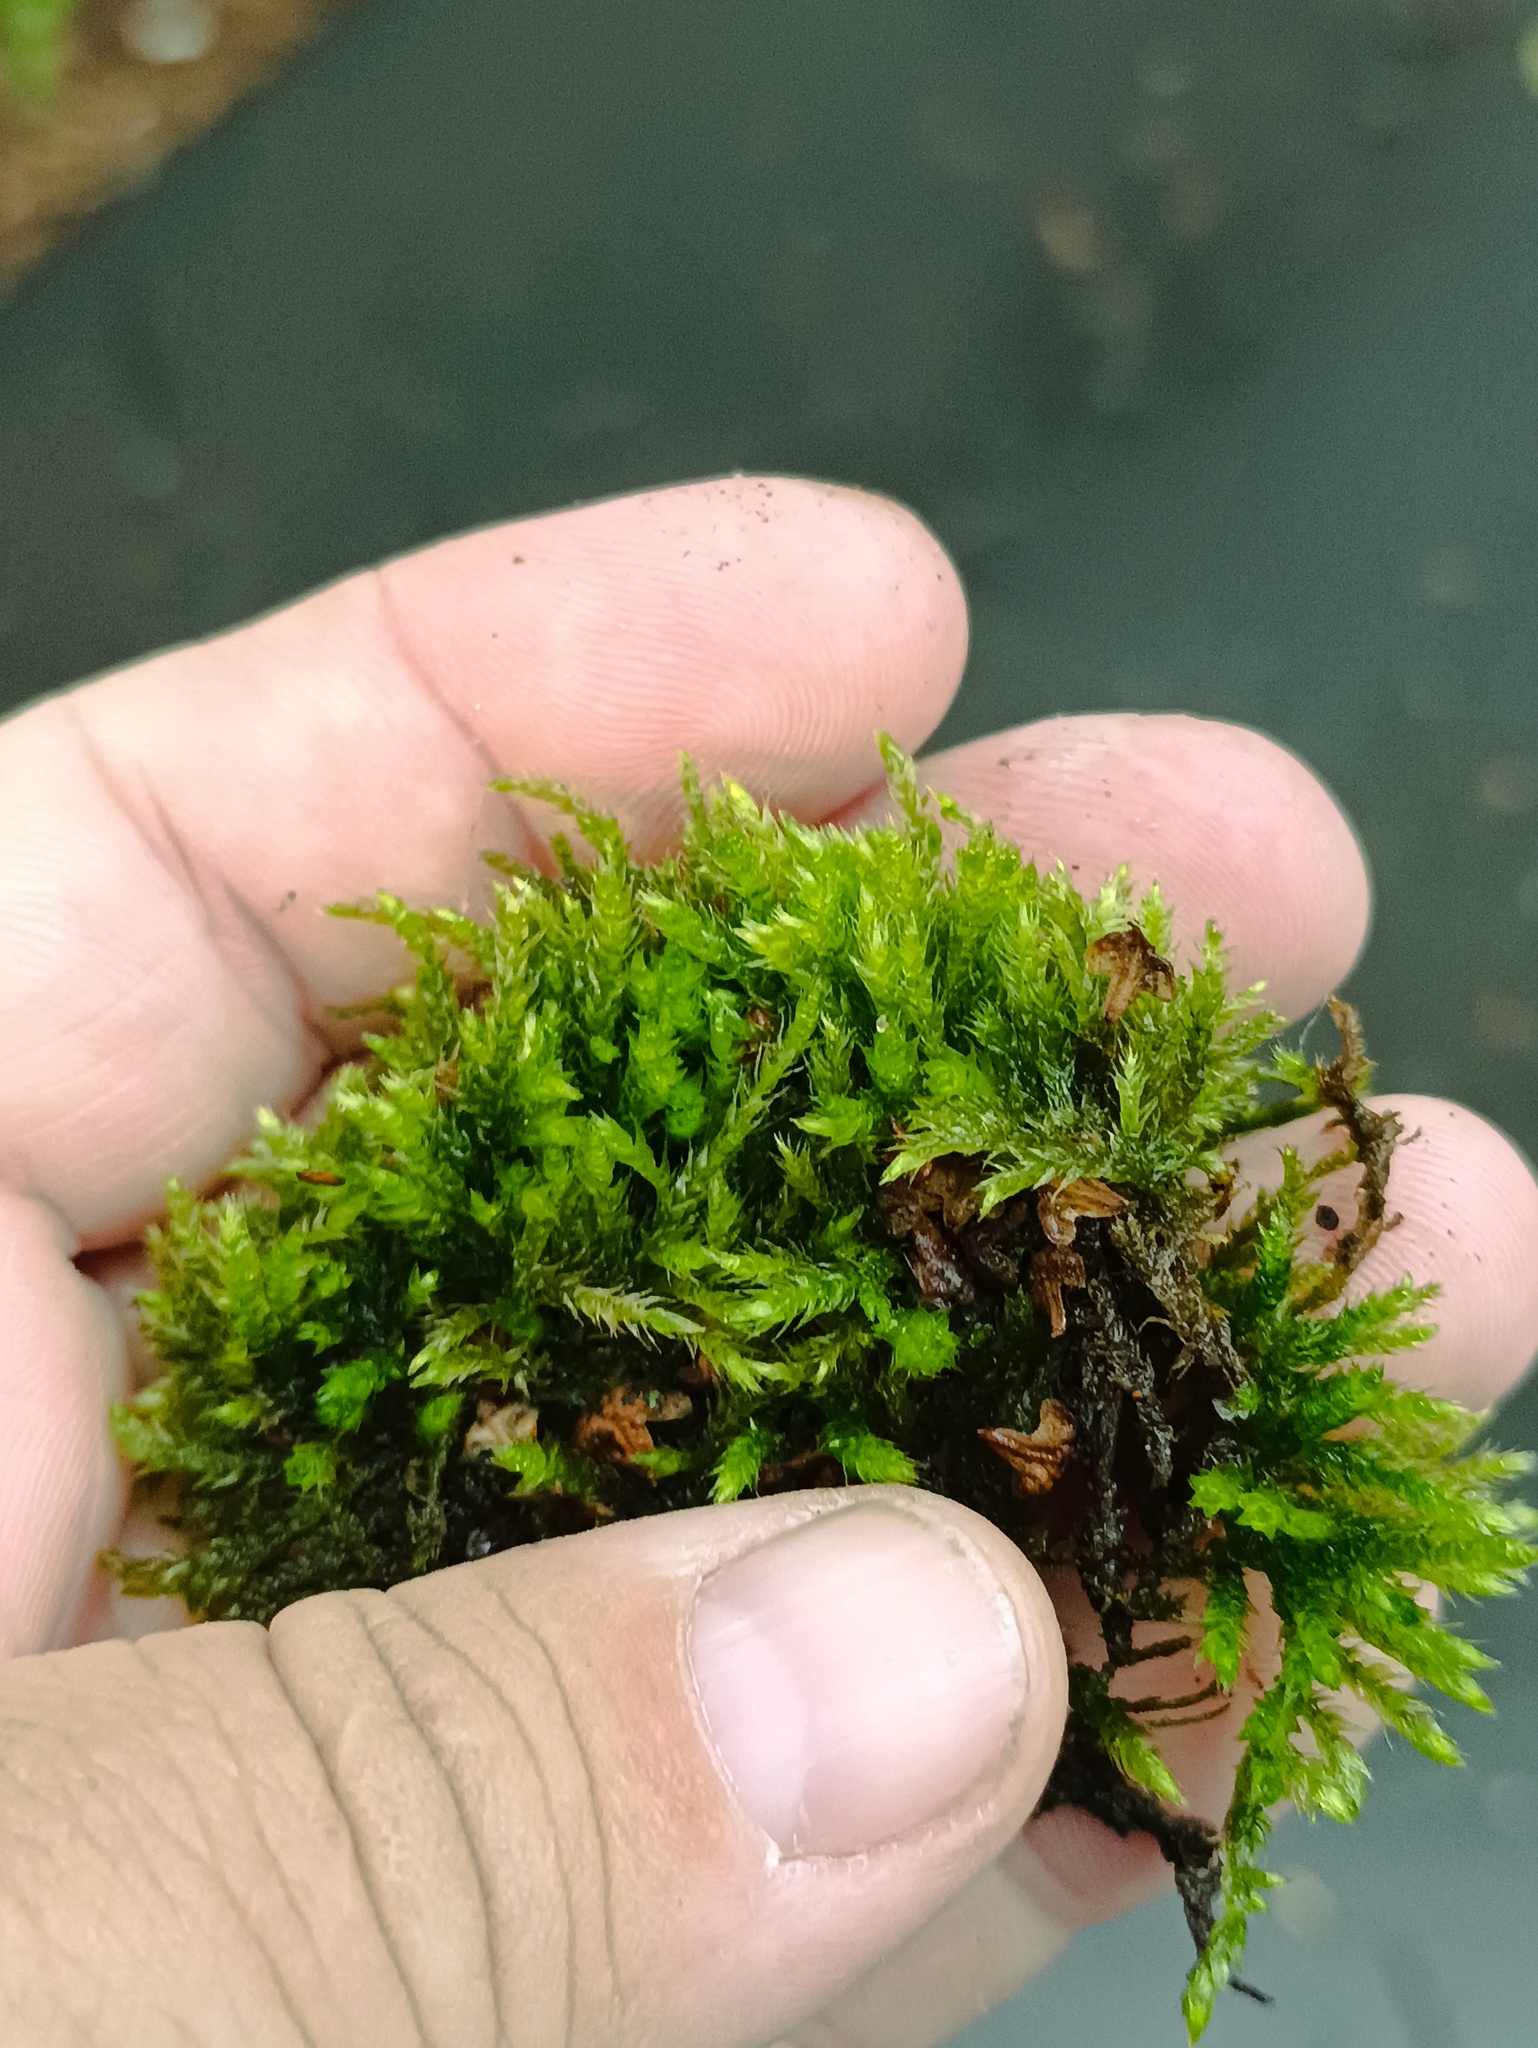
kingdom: Plantae
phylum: Bryophyta
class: Bryopsida
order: Hypnales
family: Climaciaceae
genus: Climacium
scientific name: Climacium dendroides
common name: Northern tree moss
